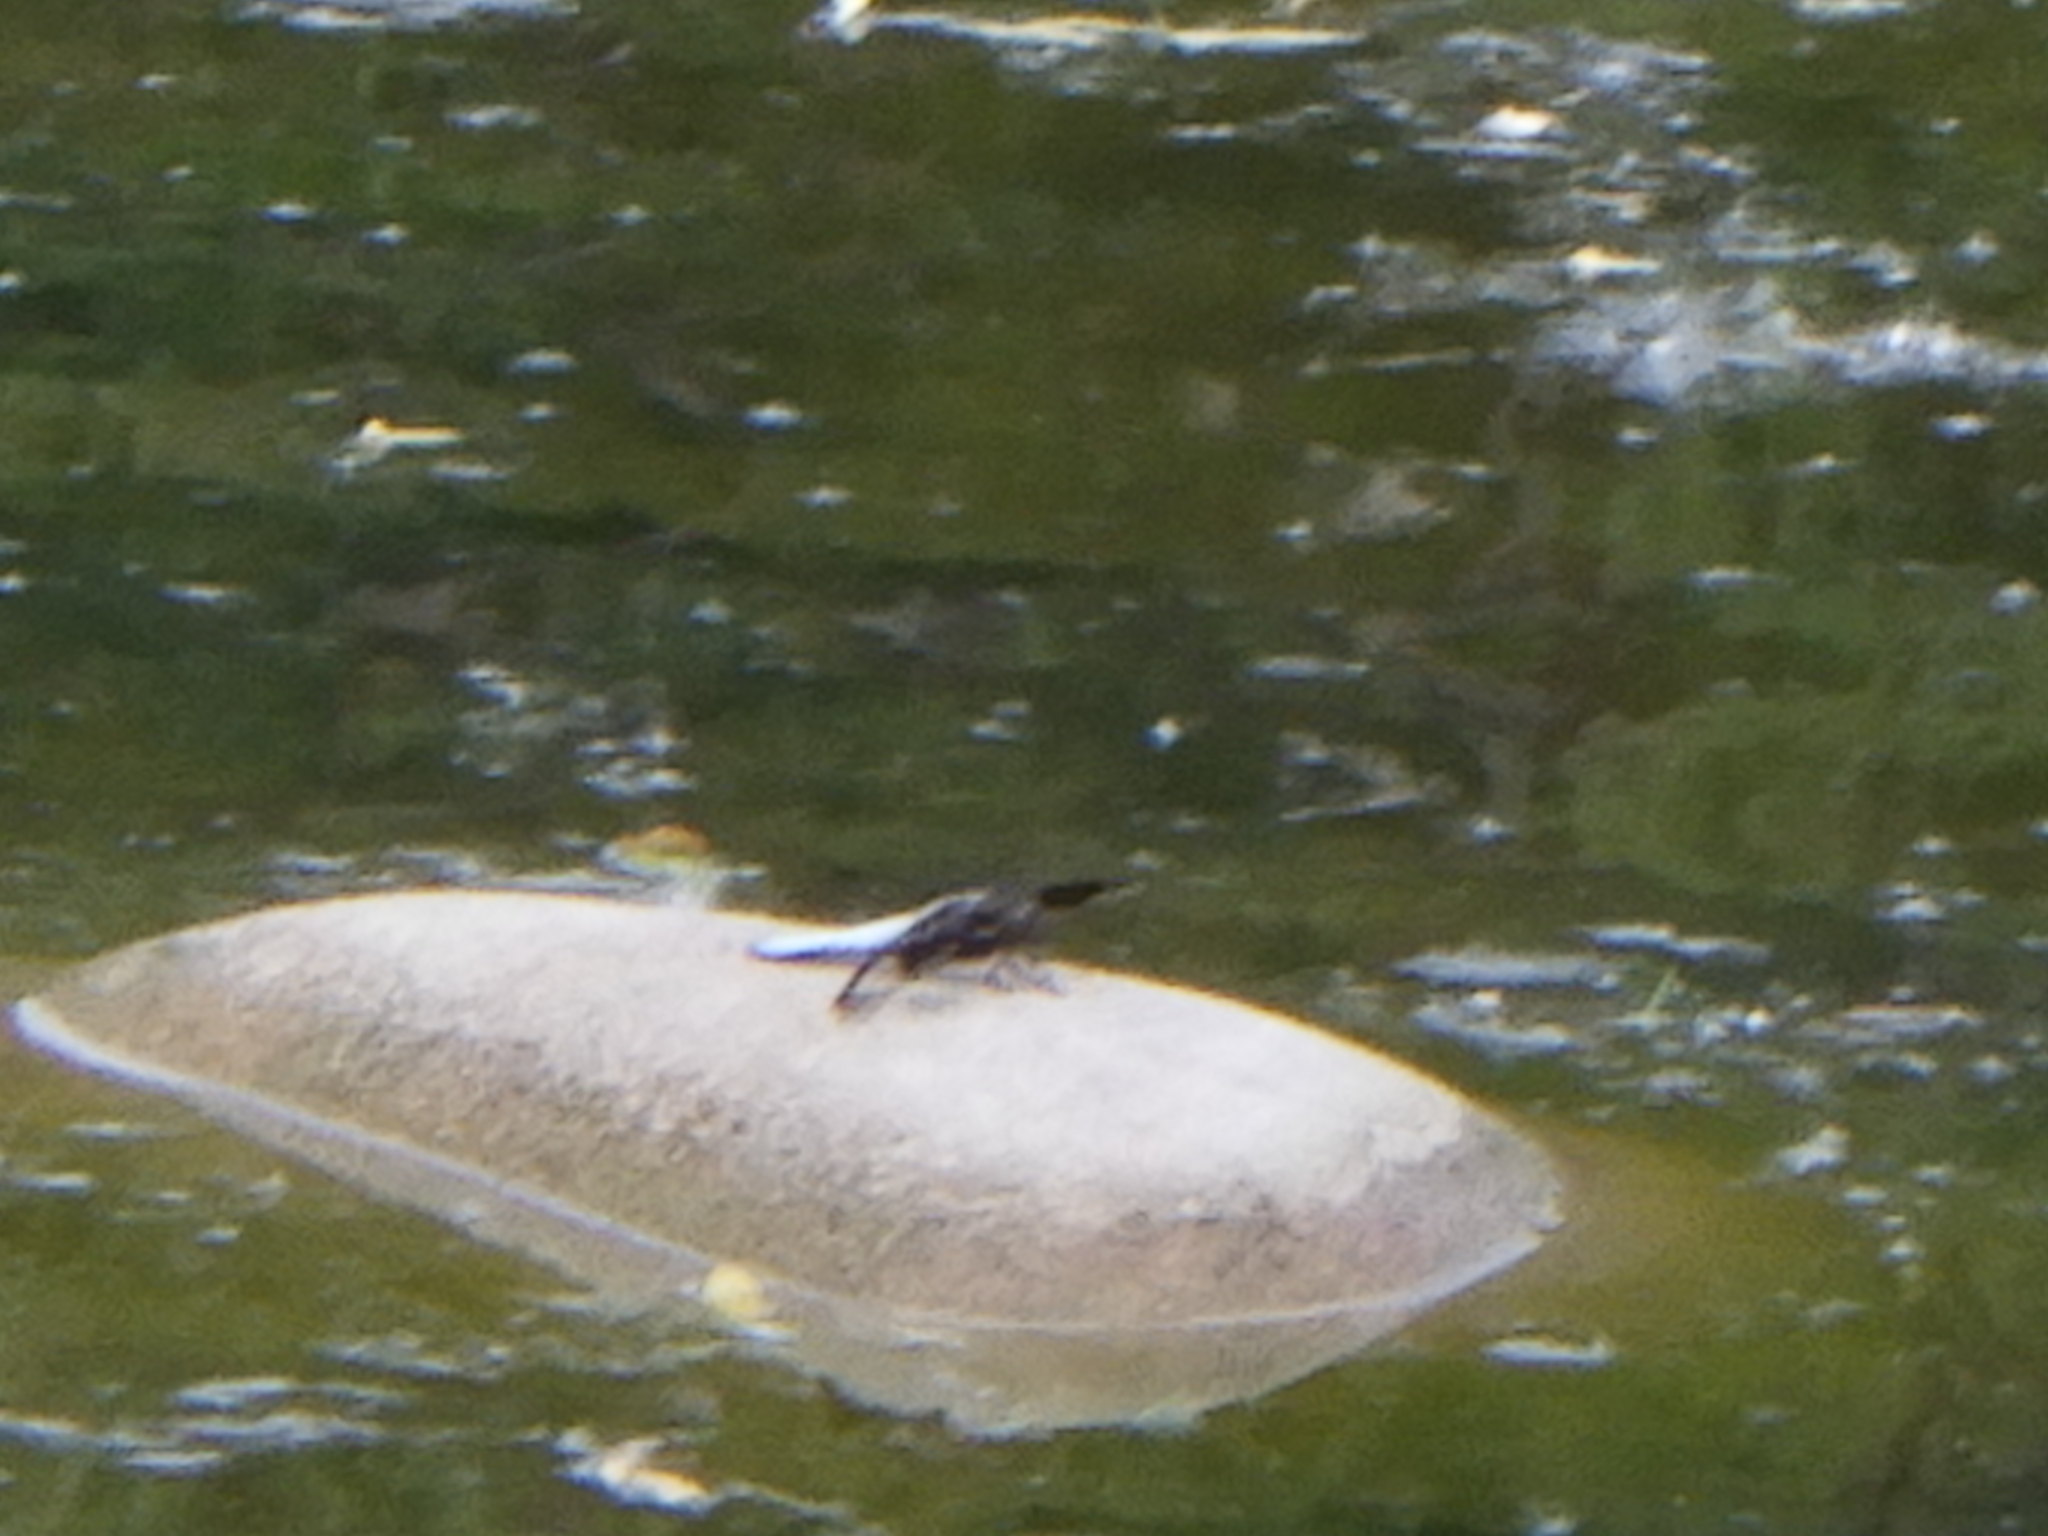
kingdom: Animalia
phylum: Arthropoda
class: Insecta
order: Odonata
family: Libellulidae
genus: Plathemis
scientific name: Plathemis lydia
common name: Common whitetail
